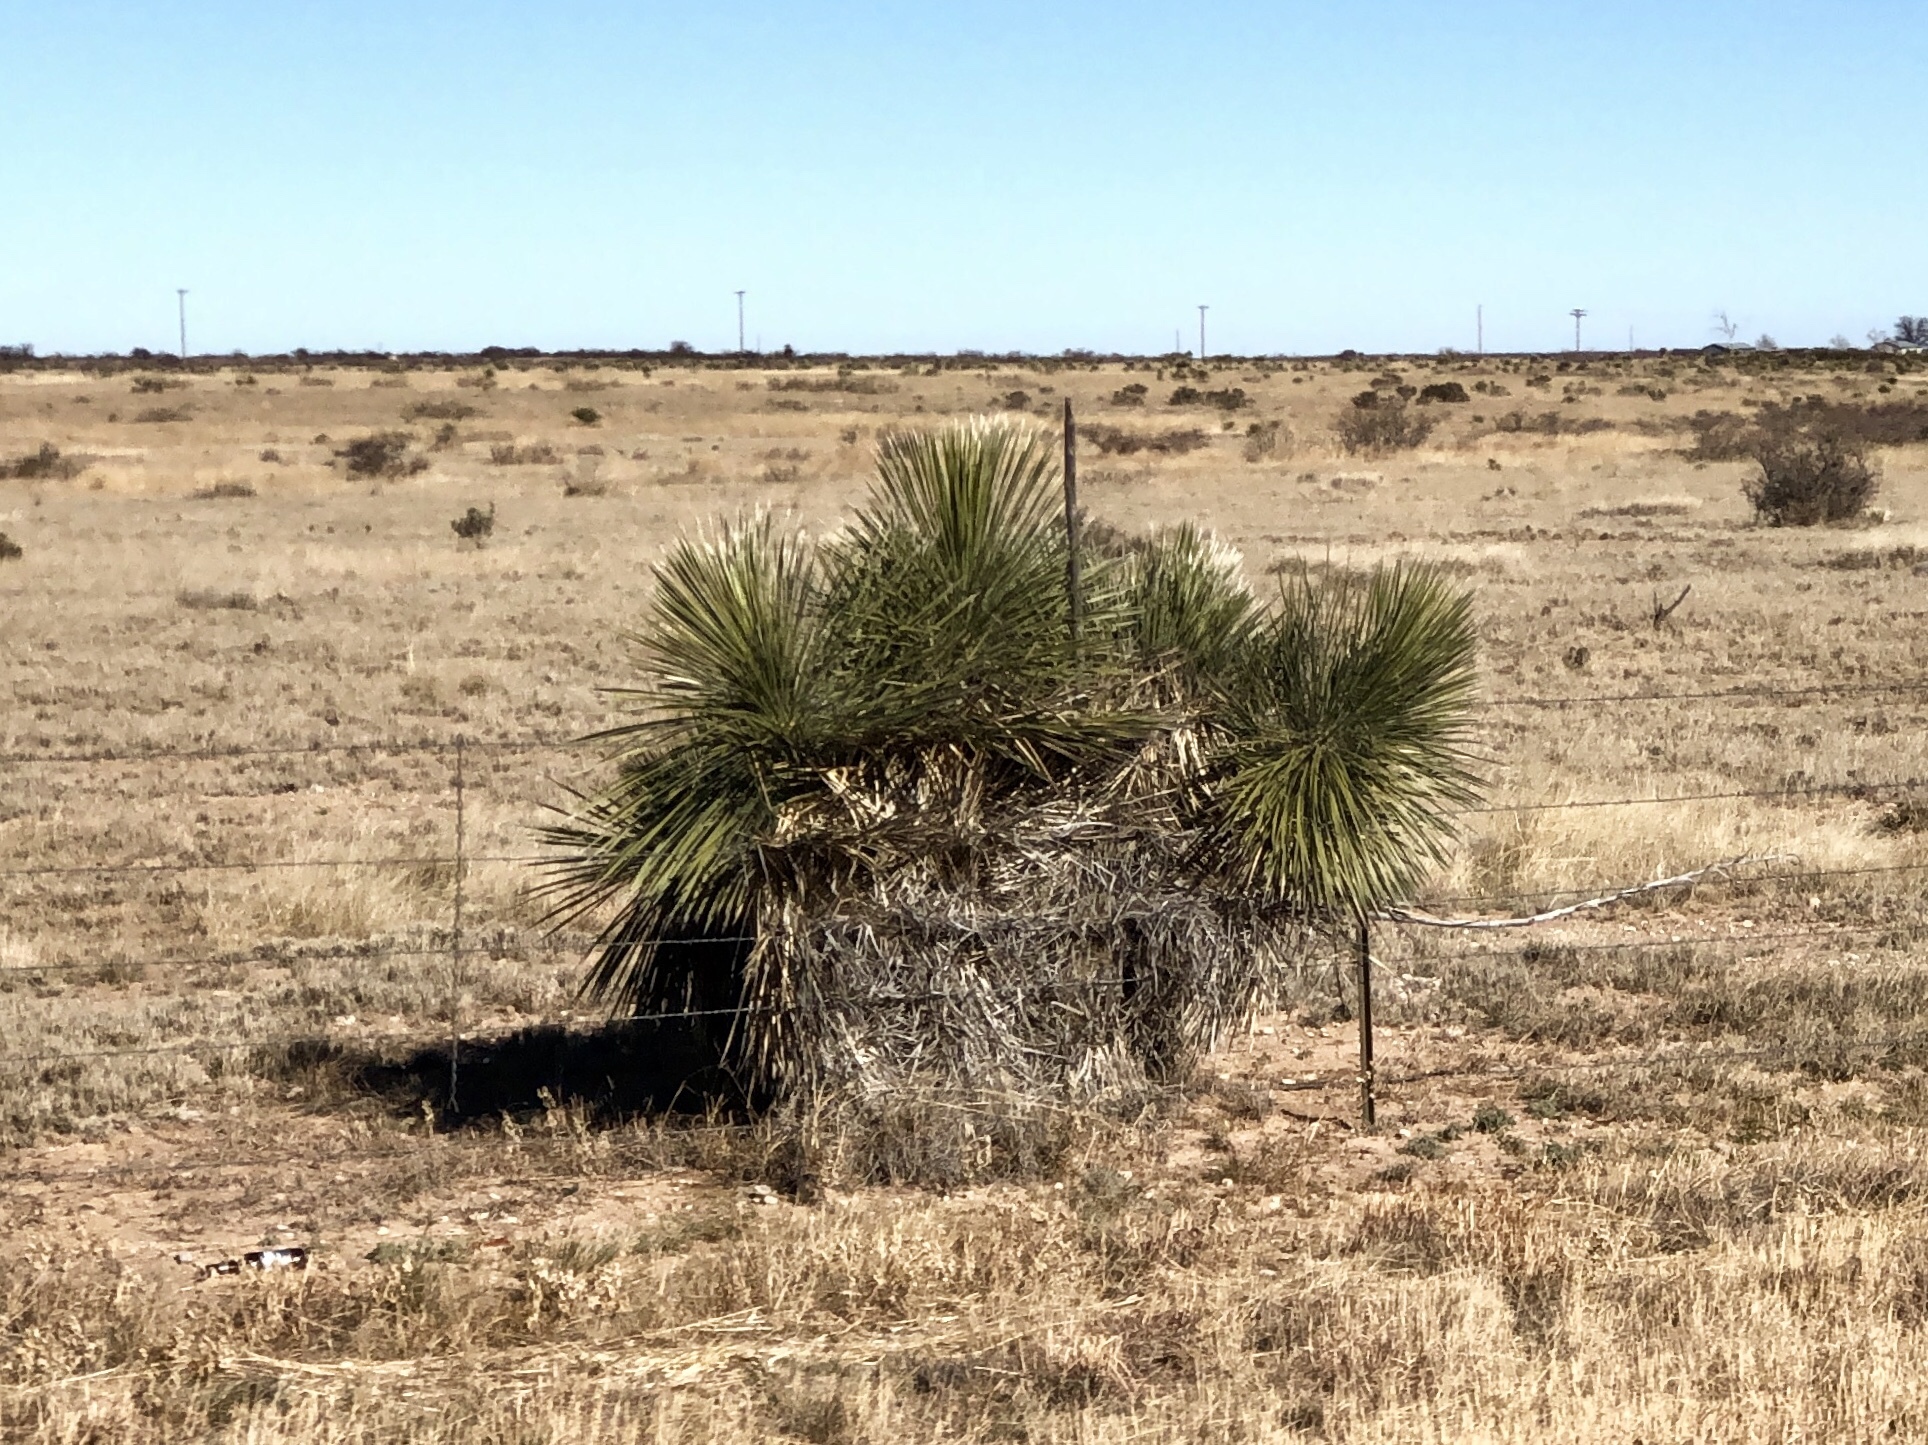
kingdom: Plantae
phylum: Tracheophyta
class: Liliopsida
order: Asparagales
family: Asparagaceae
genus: Yucca
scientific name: Yucca elata
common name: Palmella
